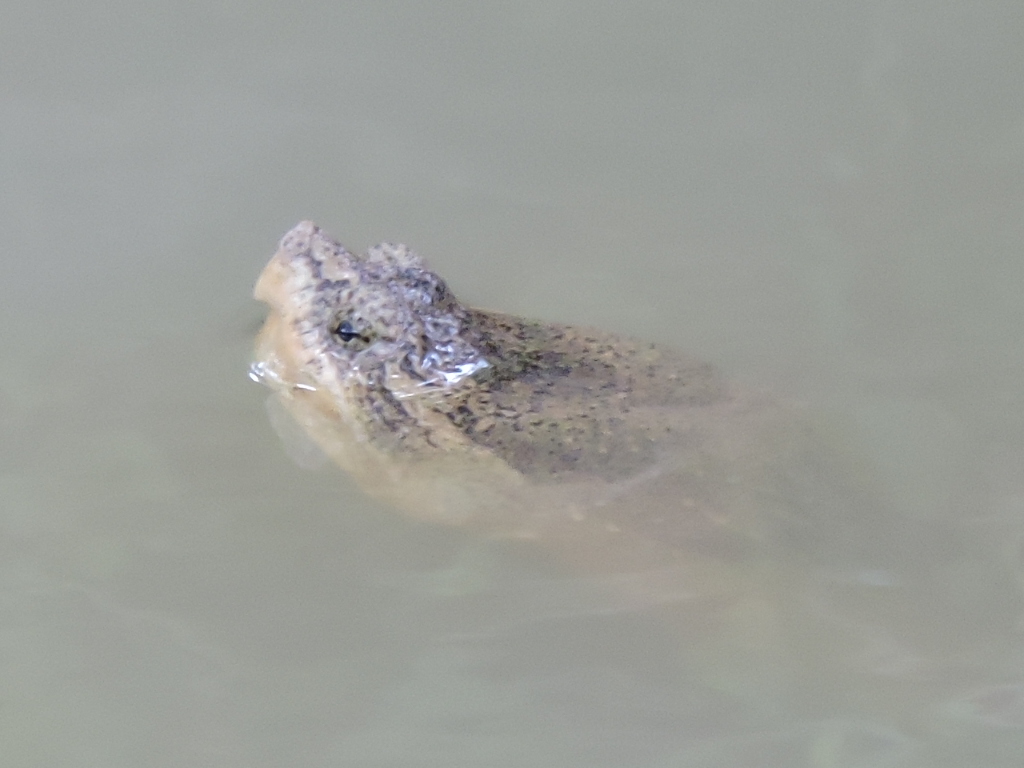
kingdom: Animalia
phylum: Chordata
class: Testudines
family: Chelydridae
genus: Chelydra
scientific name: Chelydra serpentina
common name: Common snapping turtle
